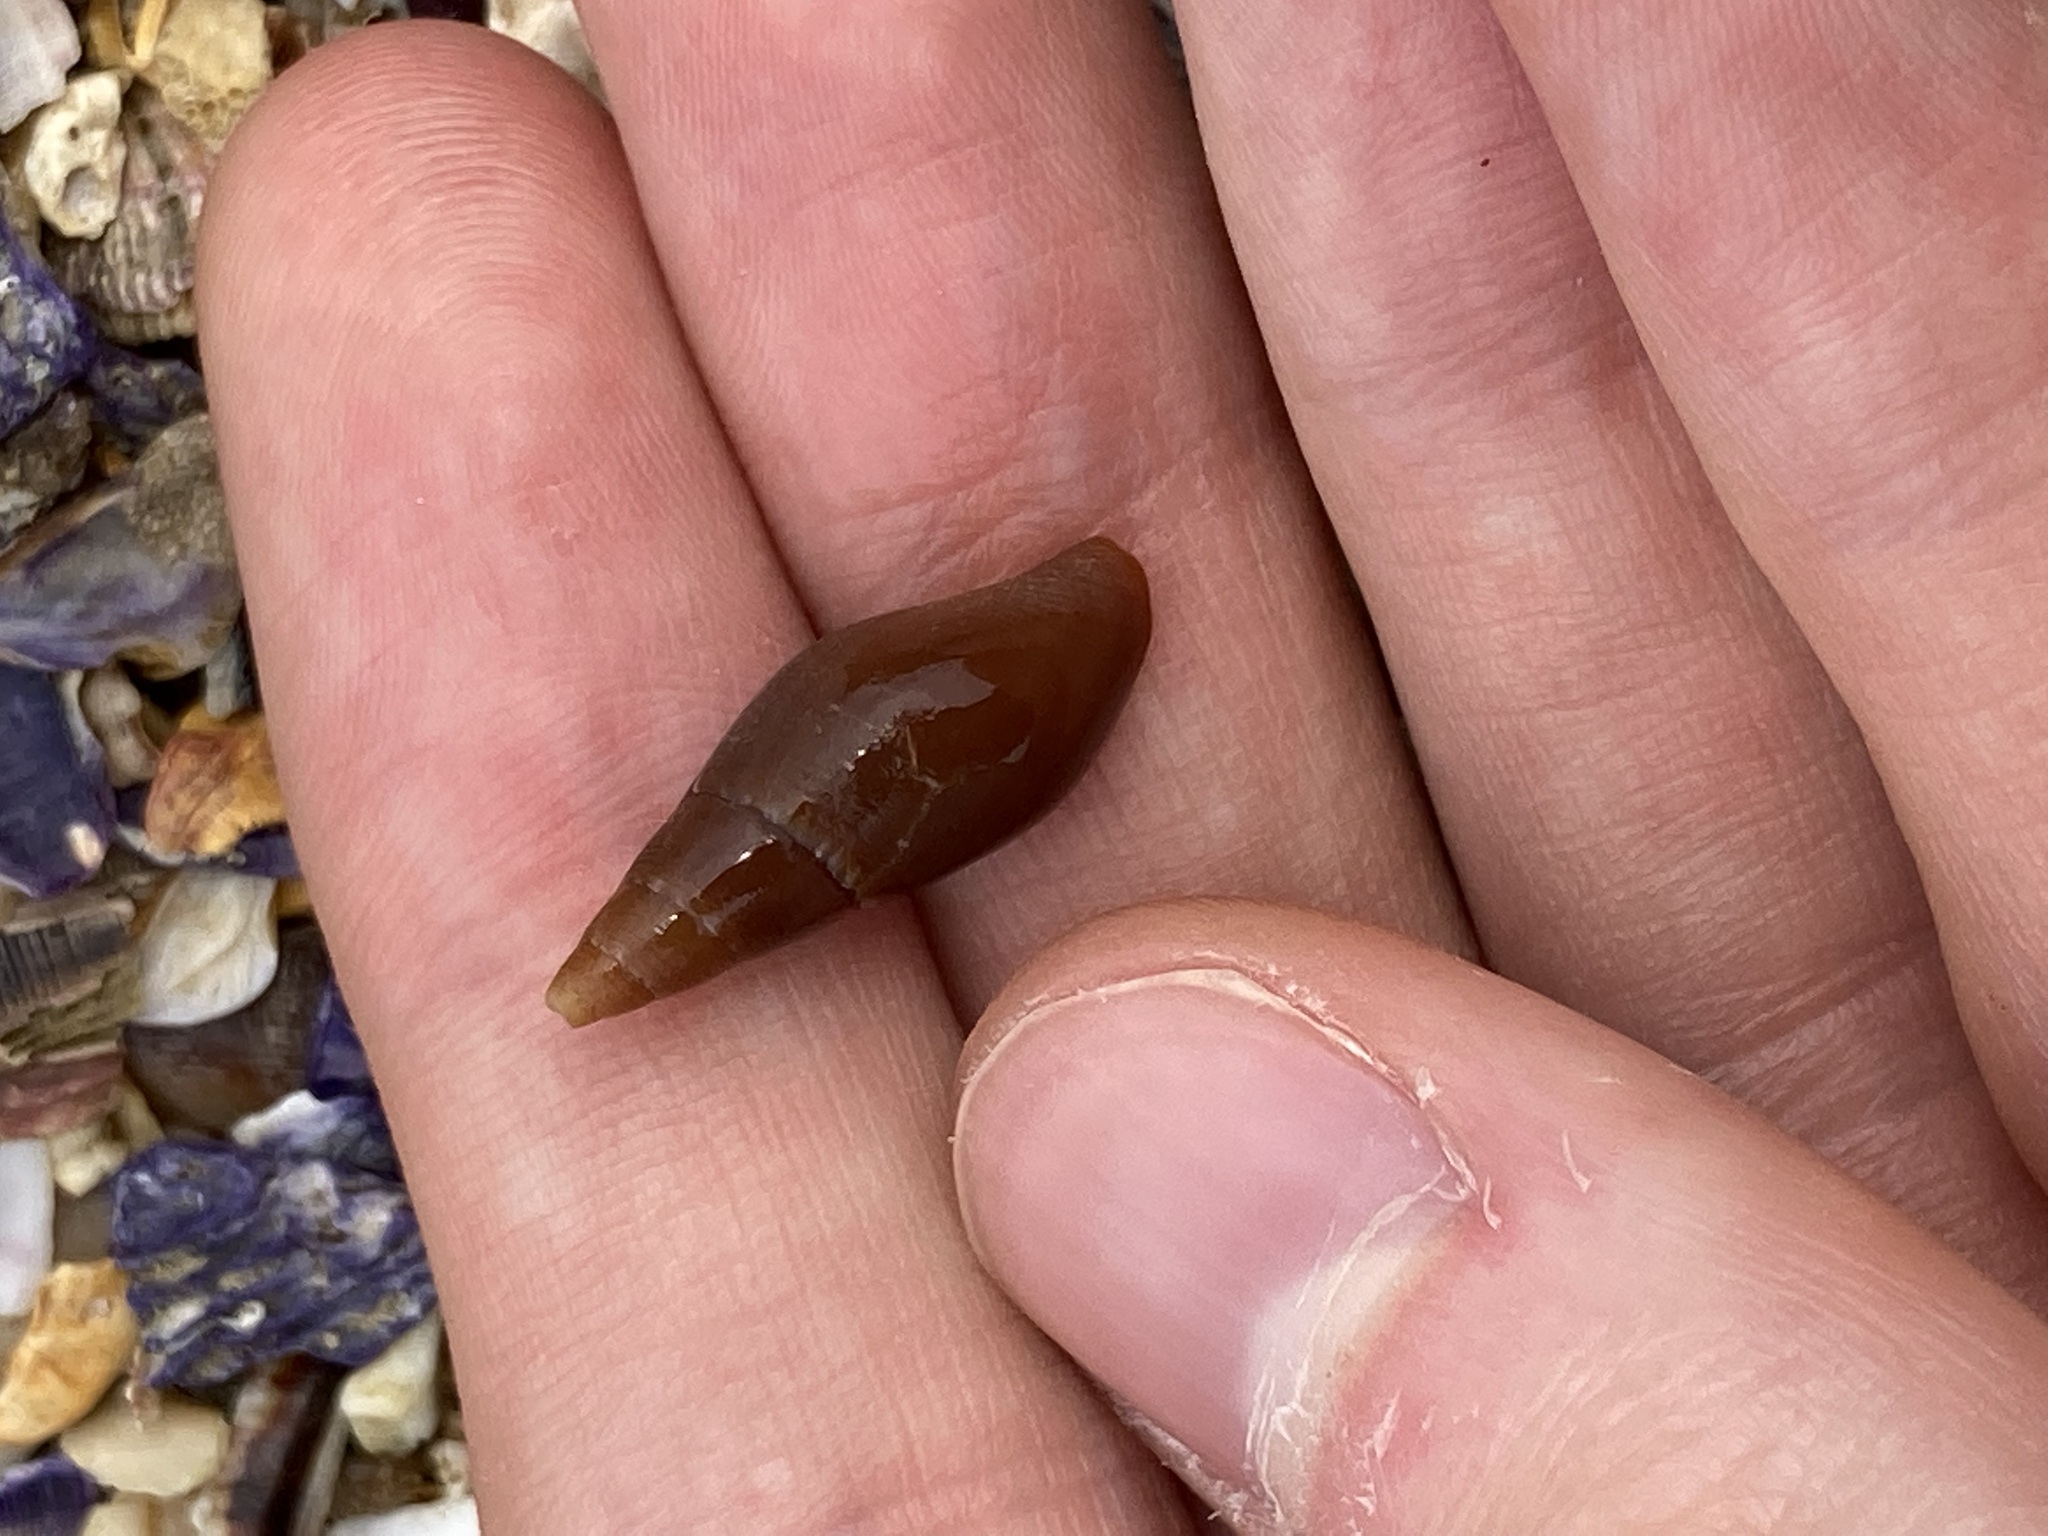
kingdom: Animalia
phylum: Mollusca
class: Gastropoda
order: Neogastropoda
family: Mitridae
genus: Isara
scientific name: Isara carbonaria
